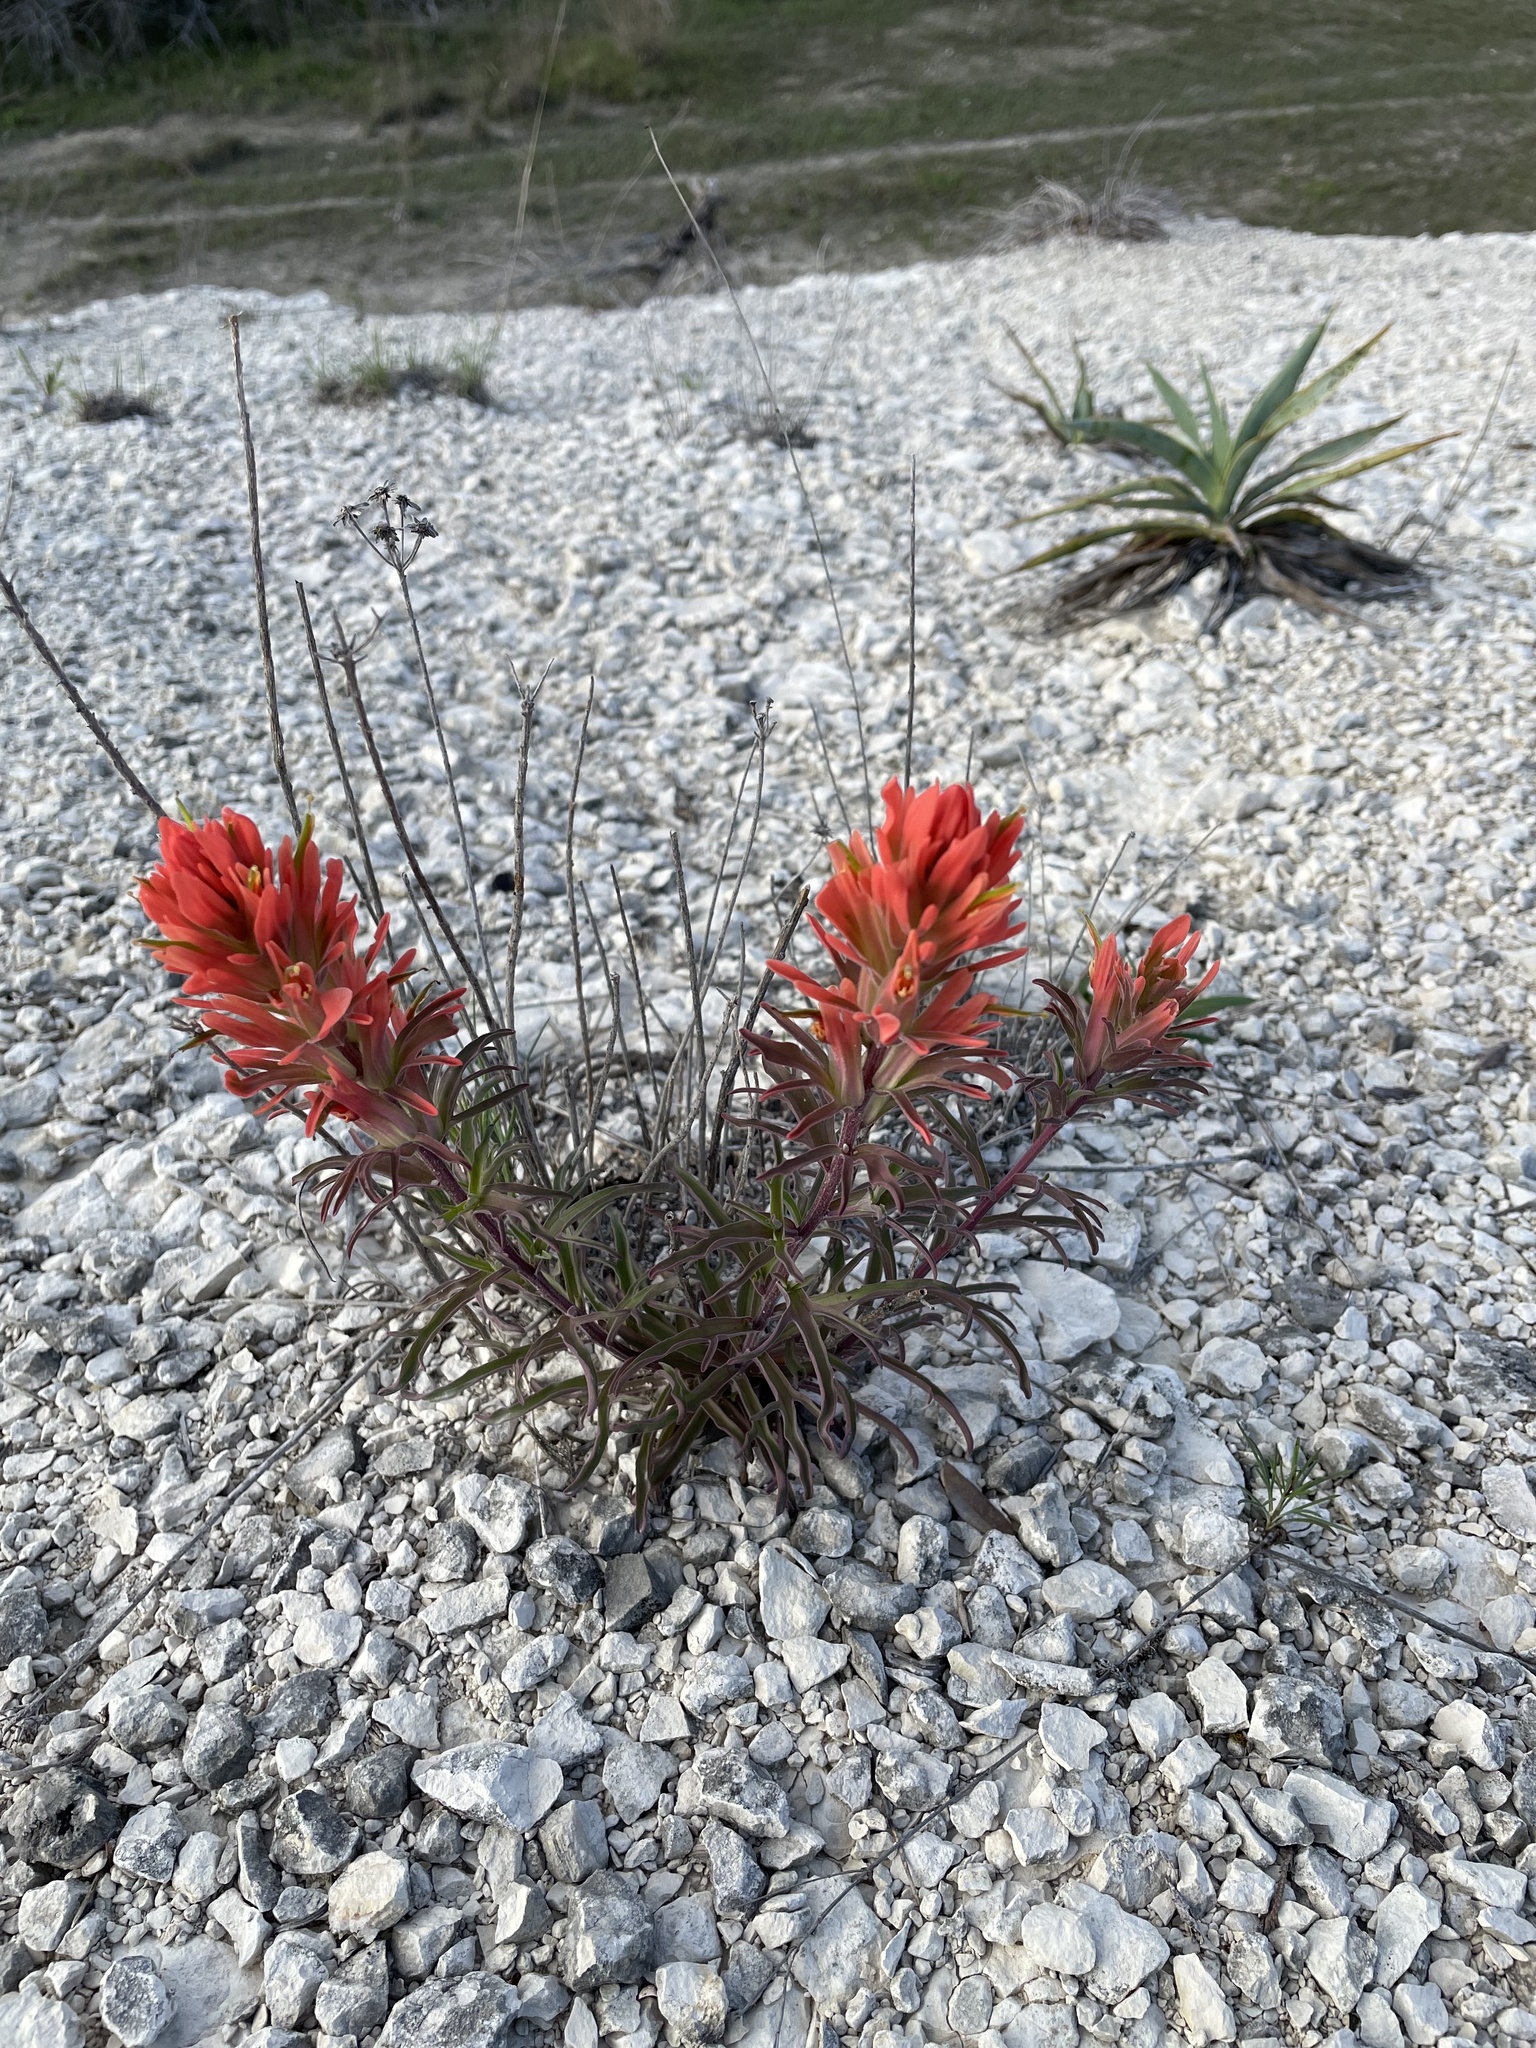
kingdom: Plantae
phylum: Tracheophyta
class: Magnoliopsida
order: Lamiales
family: Orobanchaceae
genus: Castilleja
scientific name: Castilleja lindheimeri
